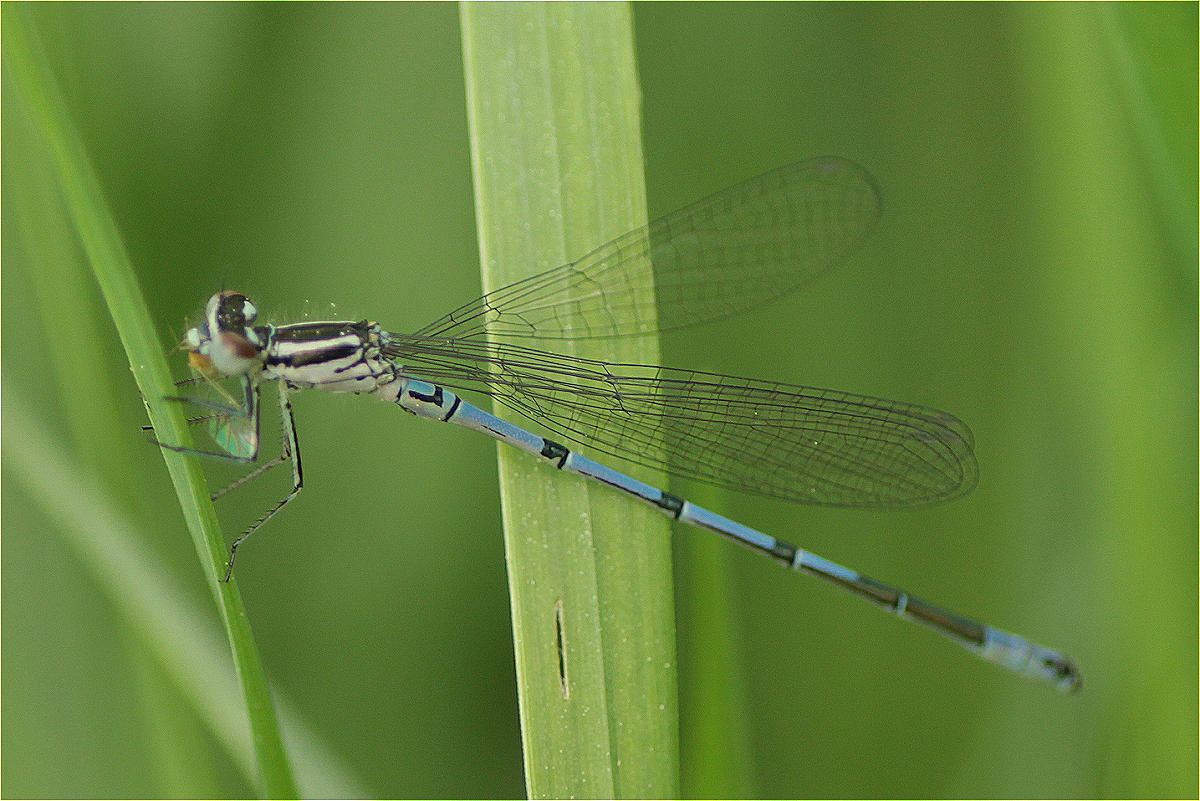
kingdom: Animalia
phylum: Arthropoda
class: Insecta
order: Odonata
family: Coenagrionidae
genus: Coenagrion
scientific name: Coenagrion puella
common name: Azure damselfly
